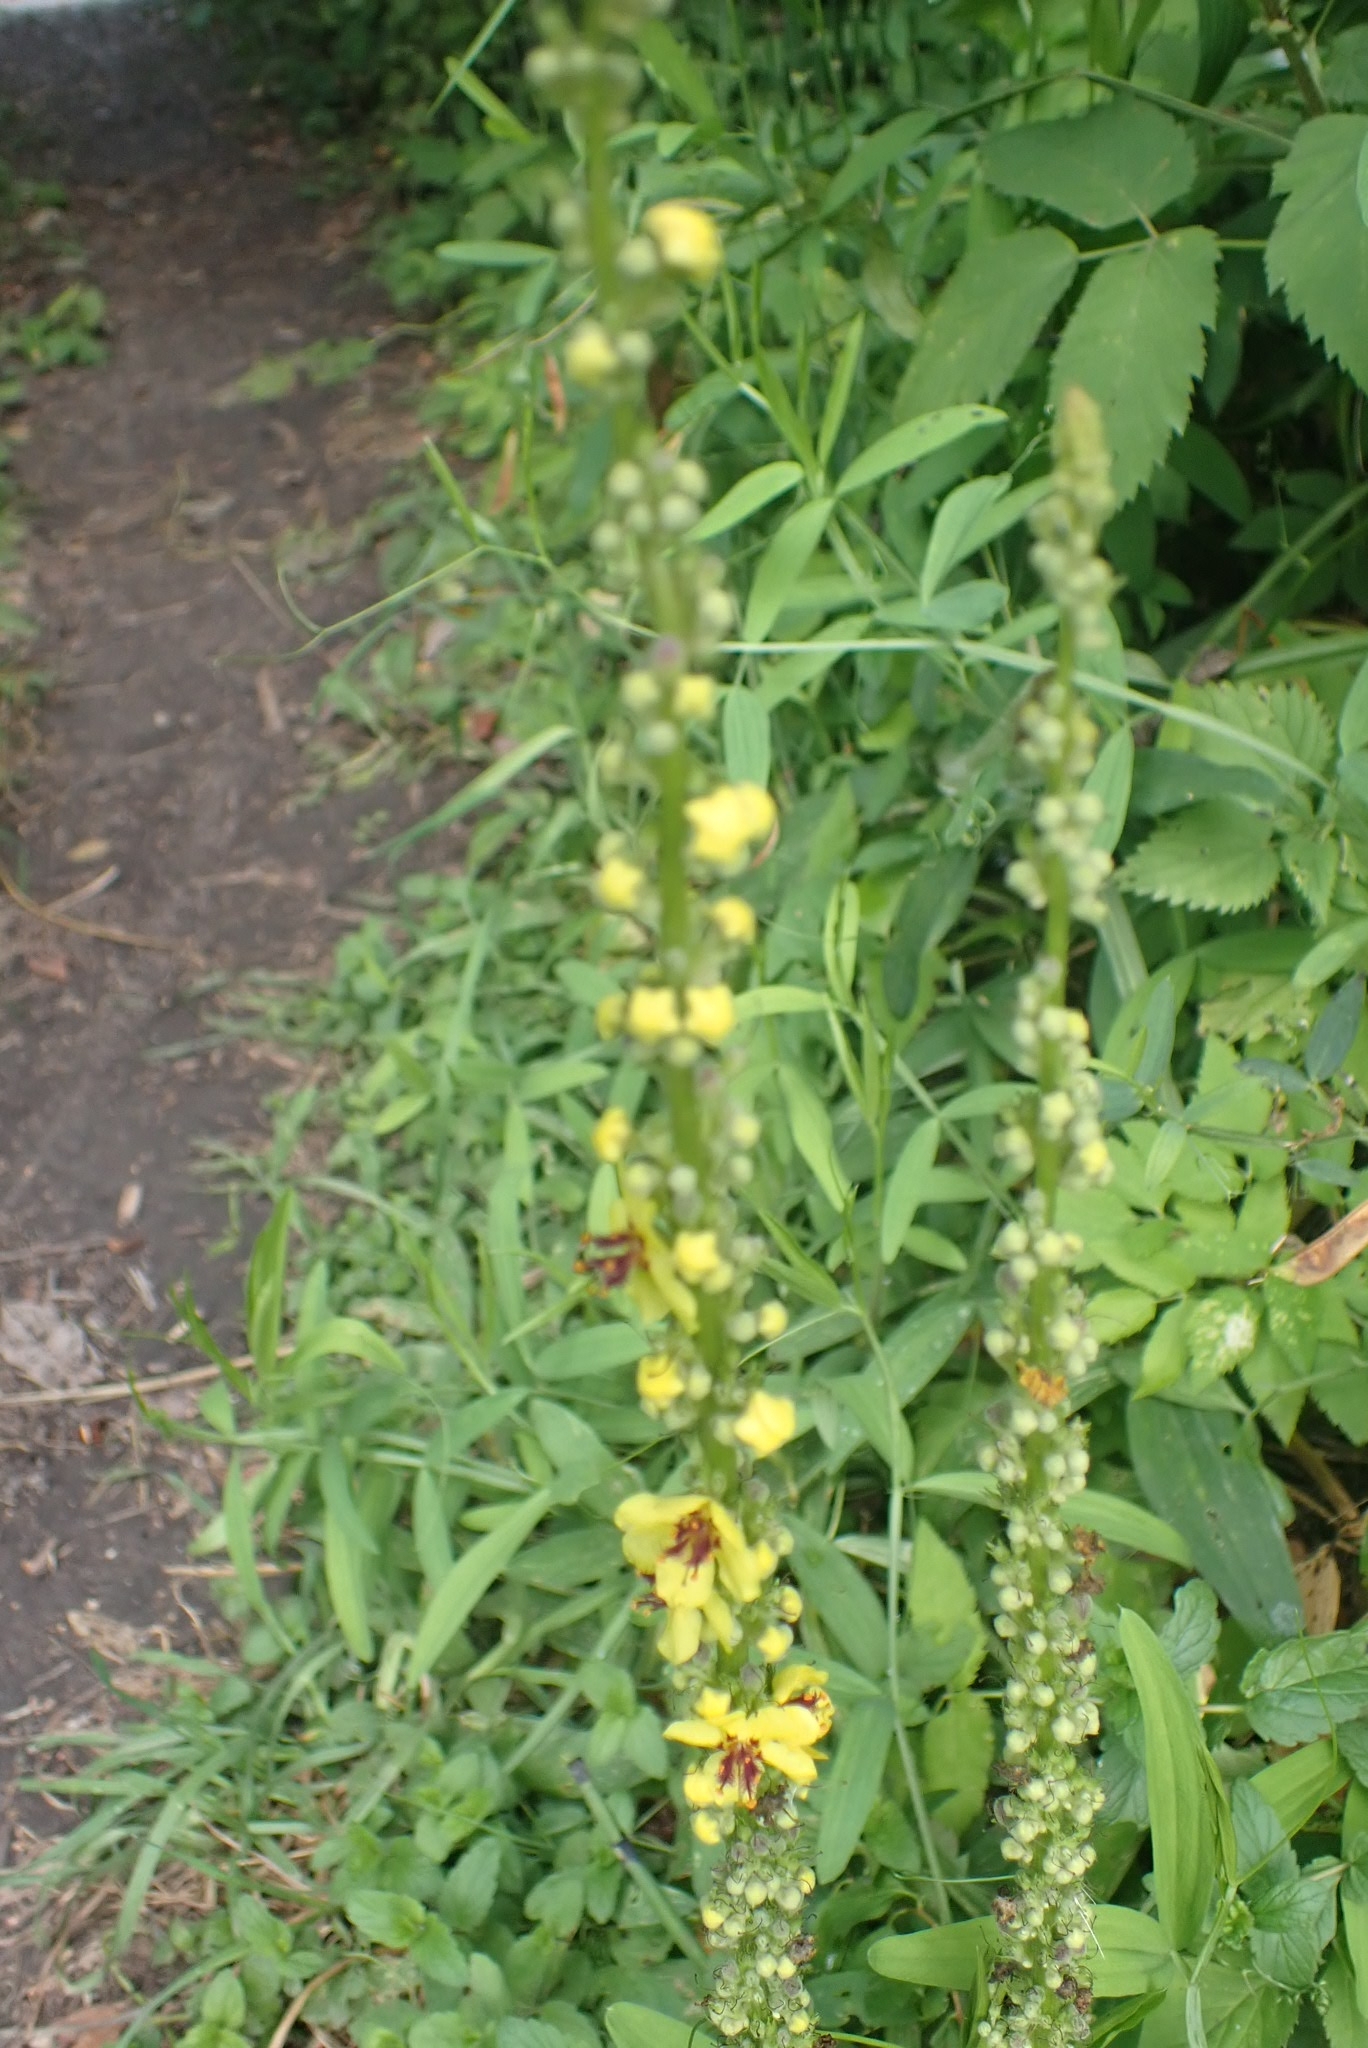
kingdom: Plantae
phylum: Tracheophyta
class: Magnoliopsida
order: Lamiales
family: Scrophulariaceae
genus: Verbascum
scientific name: Verbascum nigrum
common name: Dark mullein
